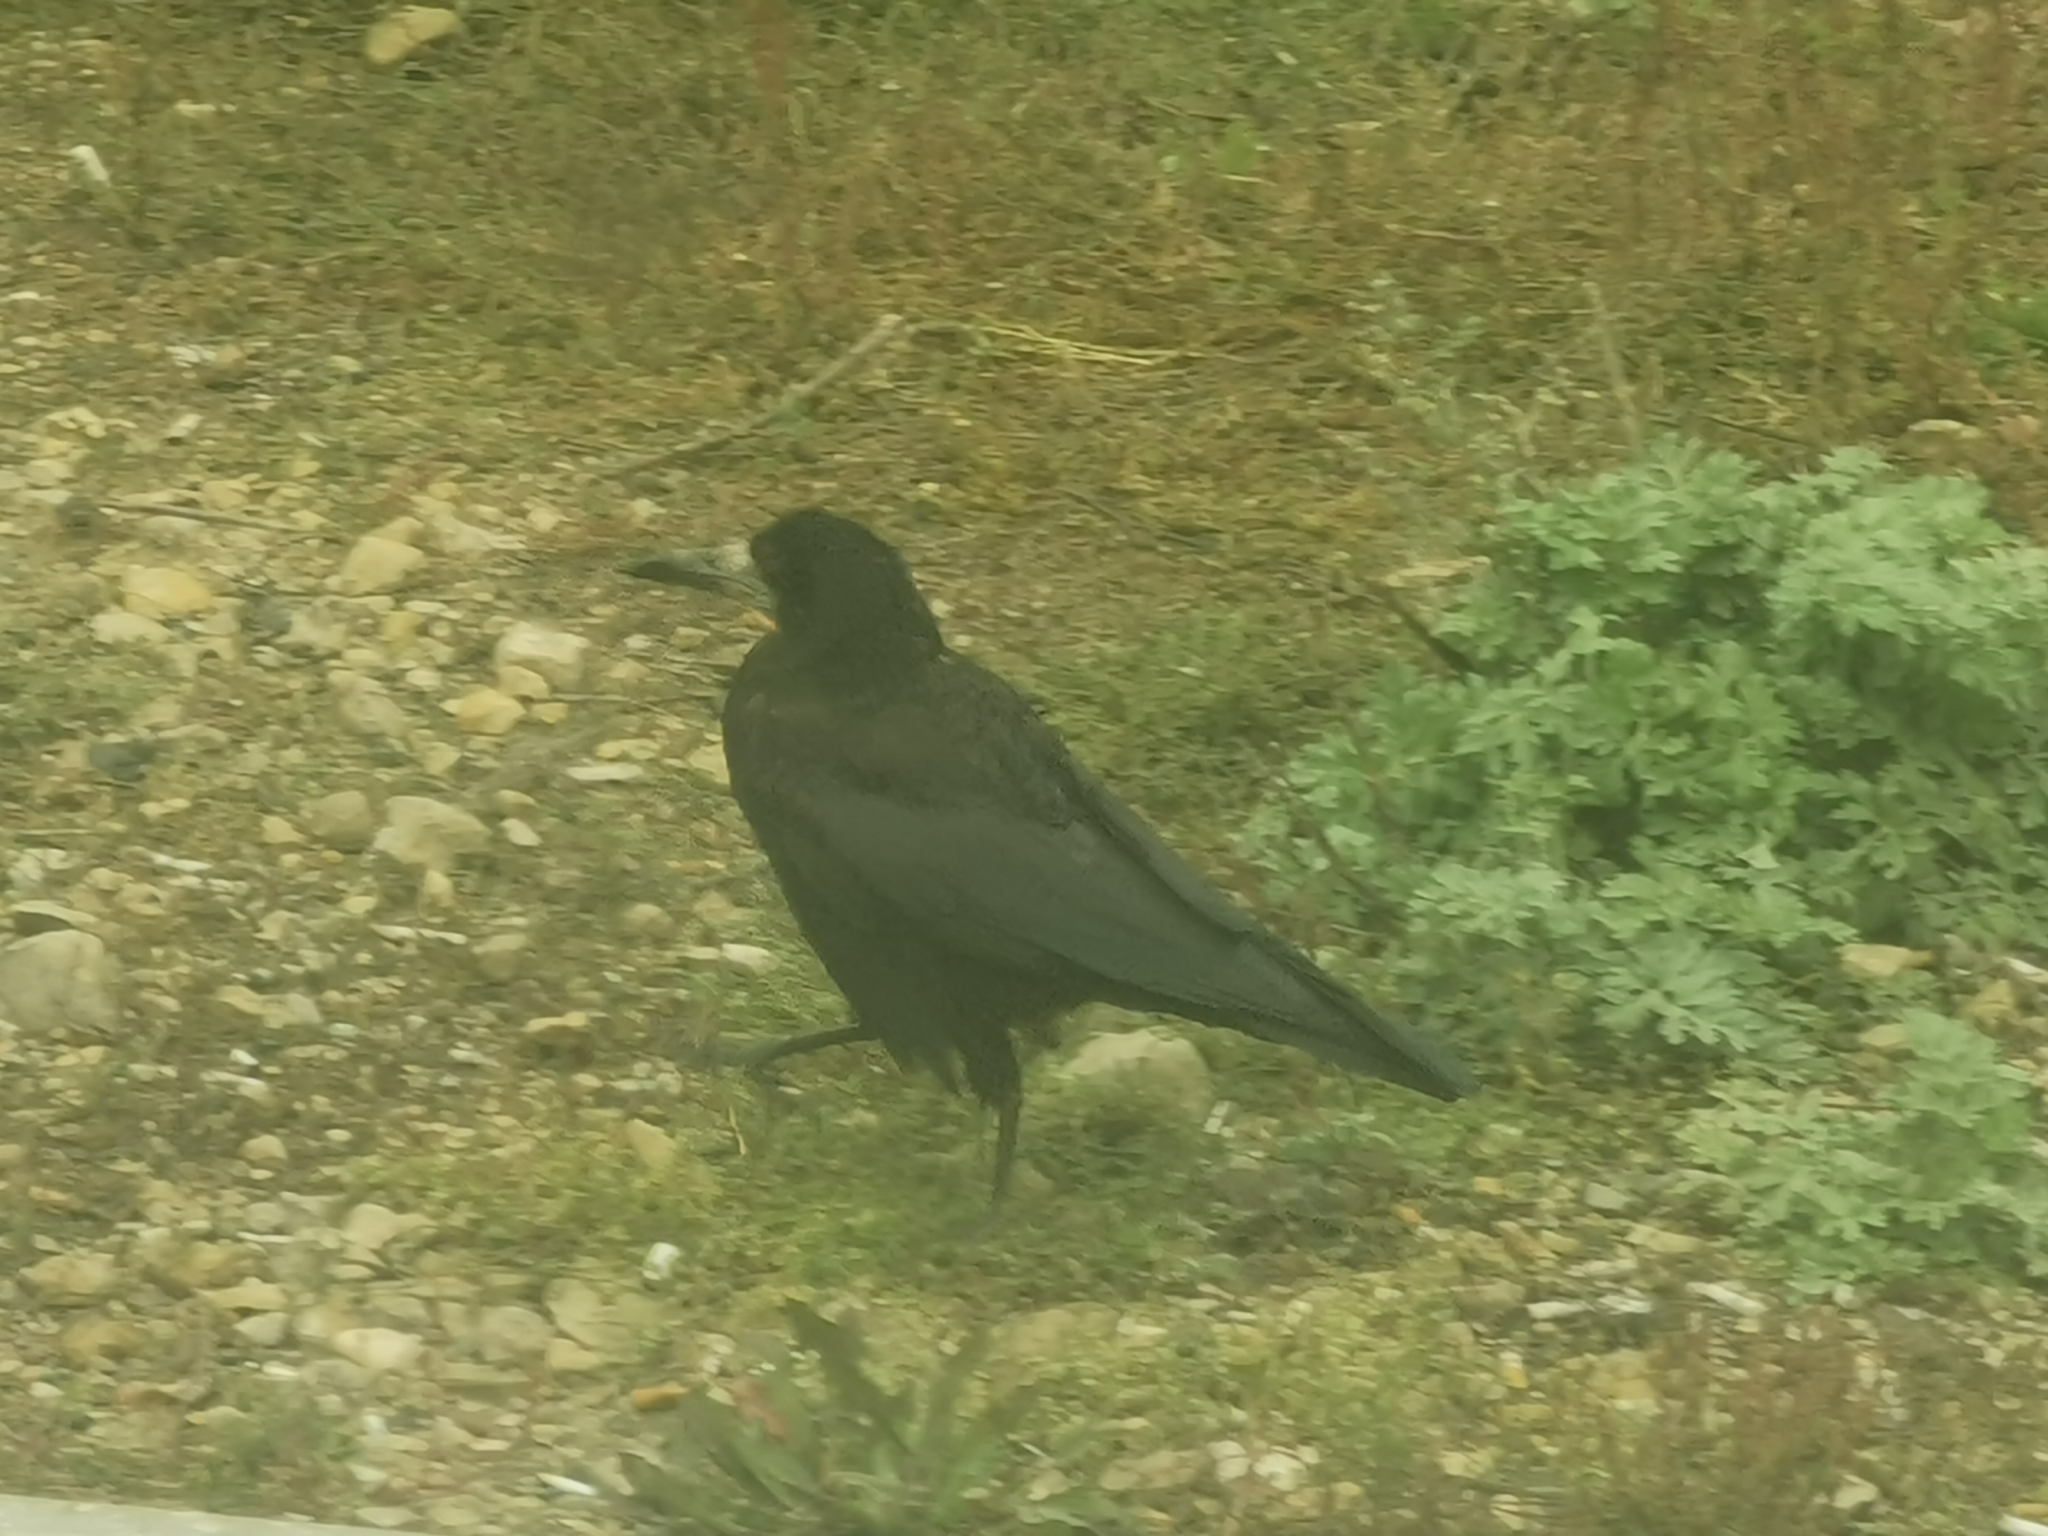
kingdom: Animalia
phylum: Chordata
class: Aves
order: Passeriformes
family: Corvidae
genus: Corvus
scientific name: Corvus frugilegus
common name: Rook
